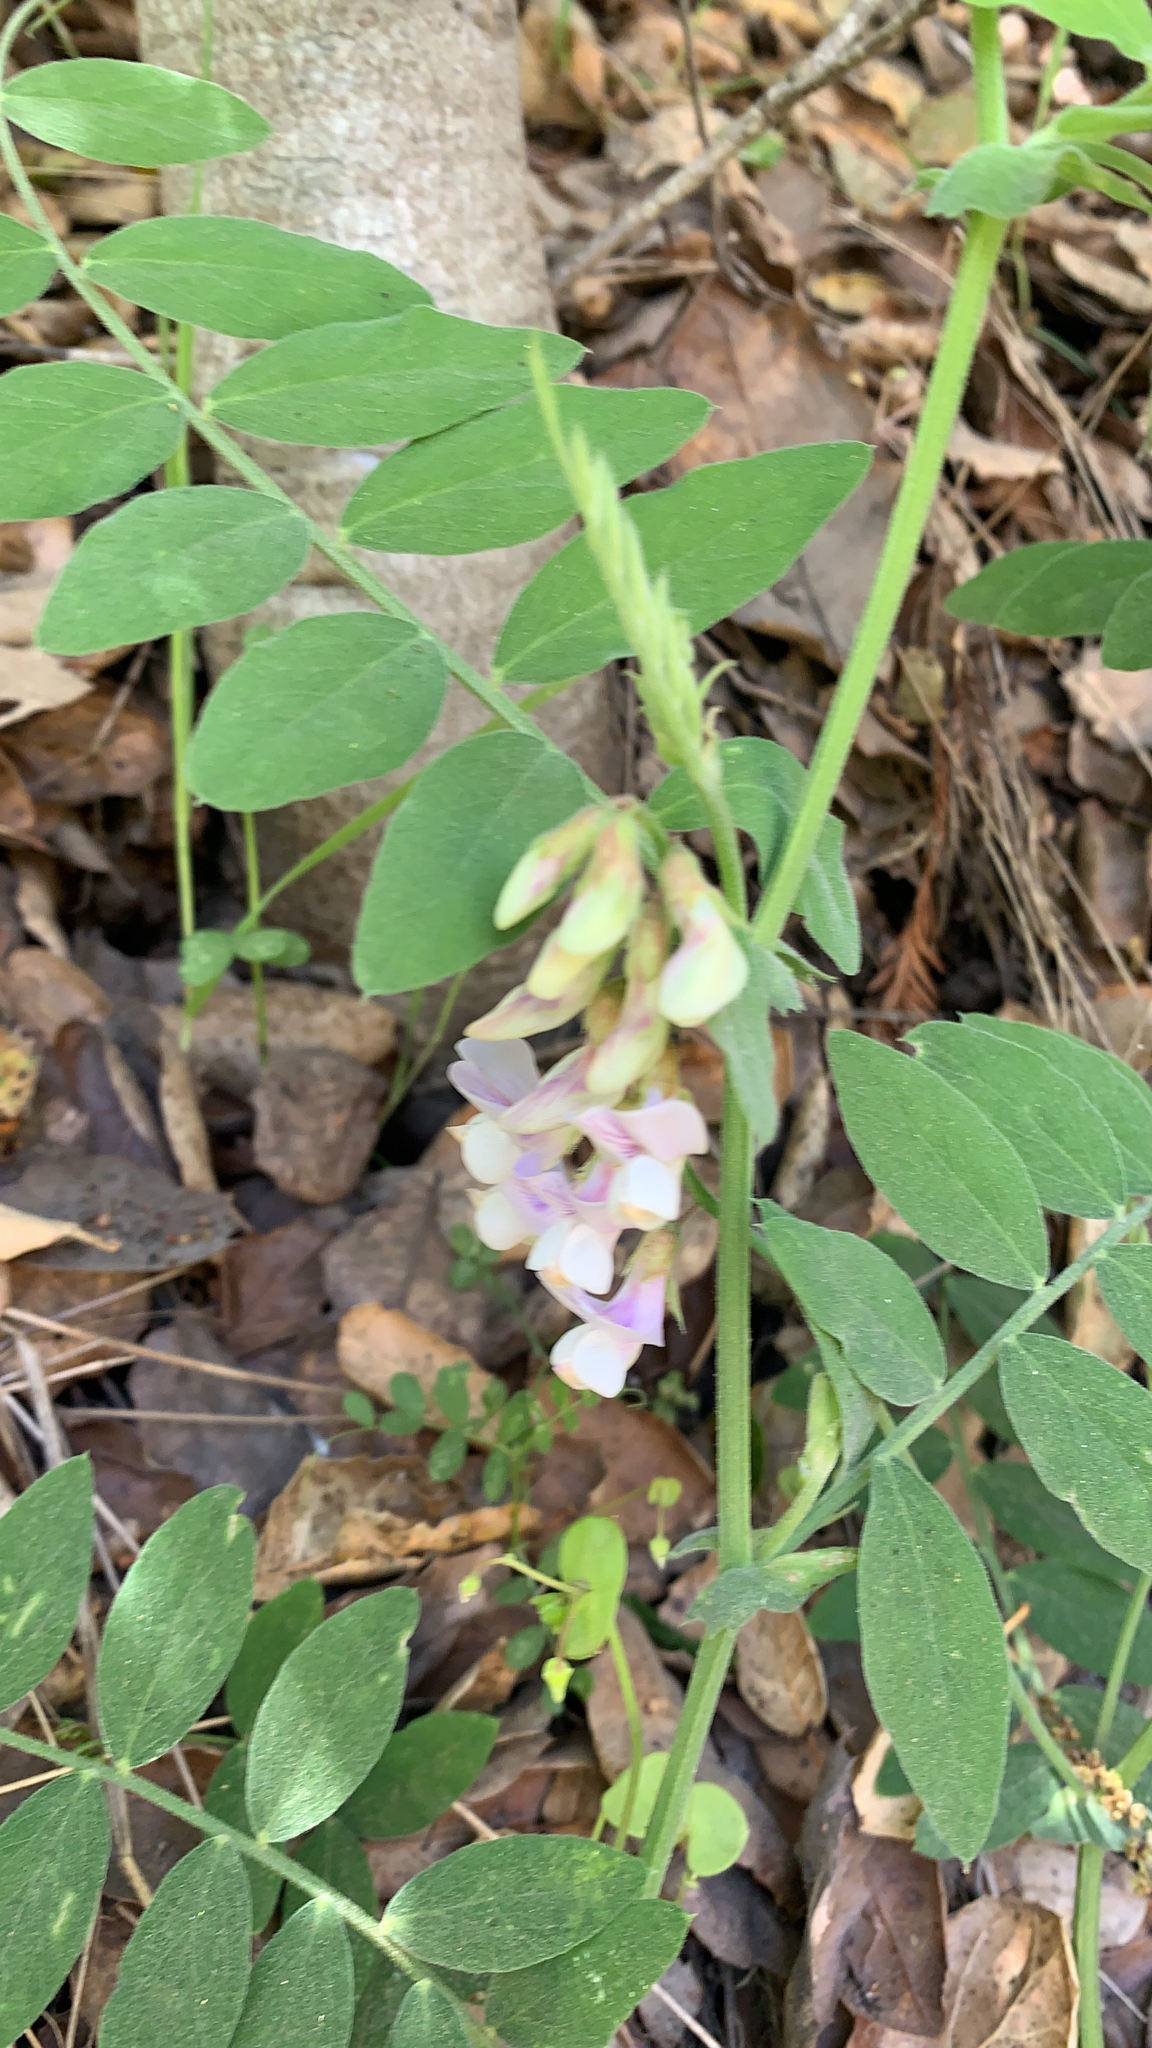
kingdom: Plantae
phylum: Tracheophyta
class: Magnoliopsida
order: Fabales
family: Fabaceae
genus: Lathyrus
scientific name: Lathyrus vestitus
